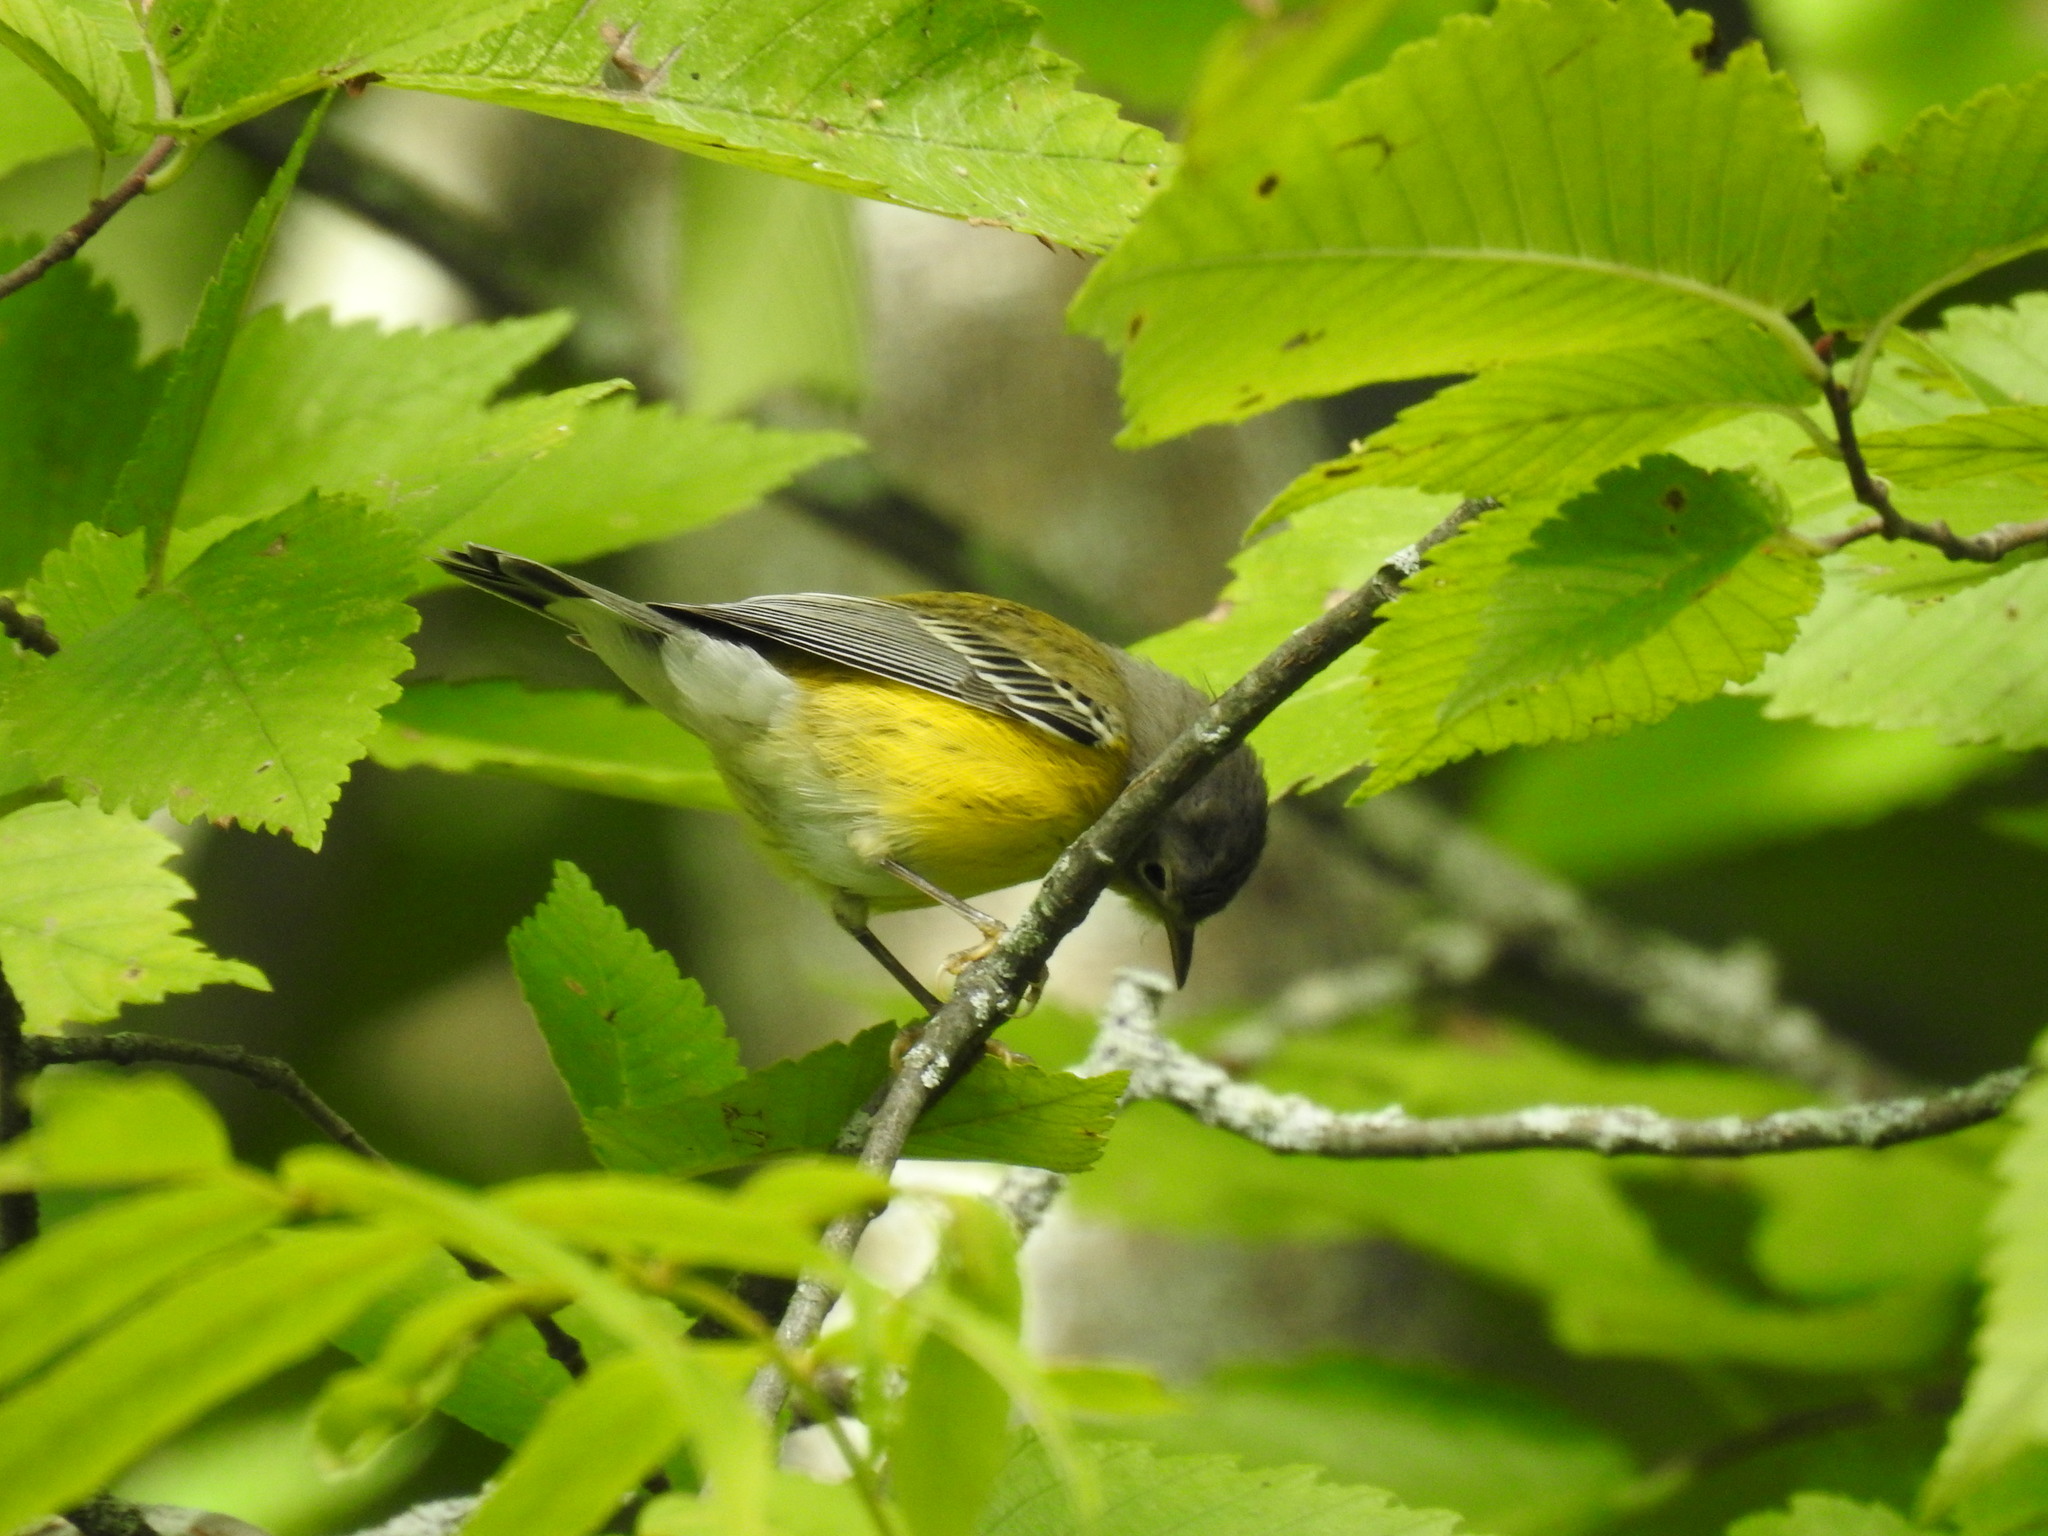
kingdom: Animalia
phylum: Chordata
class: Aves
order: Passeriformes
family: Parulidae
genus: Setophaga
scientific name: Setophaga magnolia
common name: Magnolia warbler
